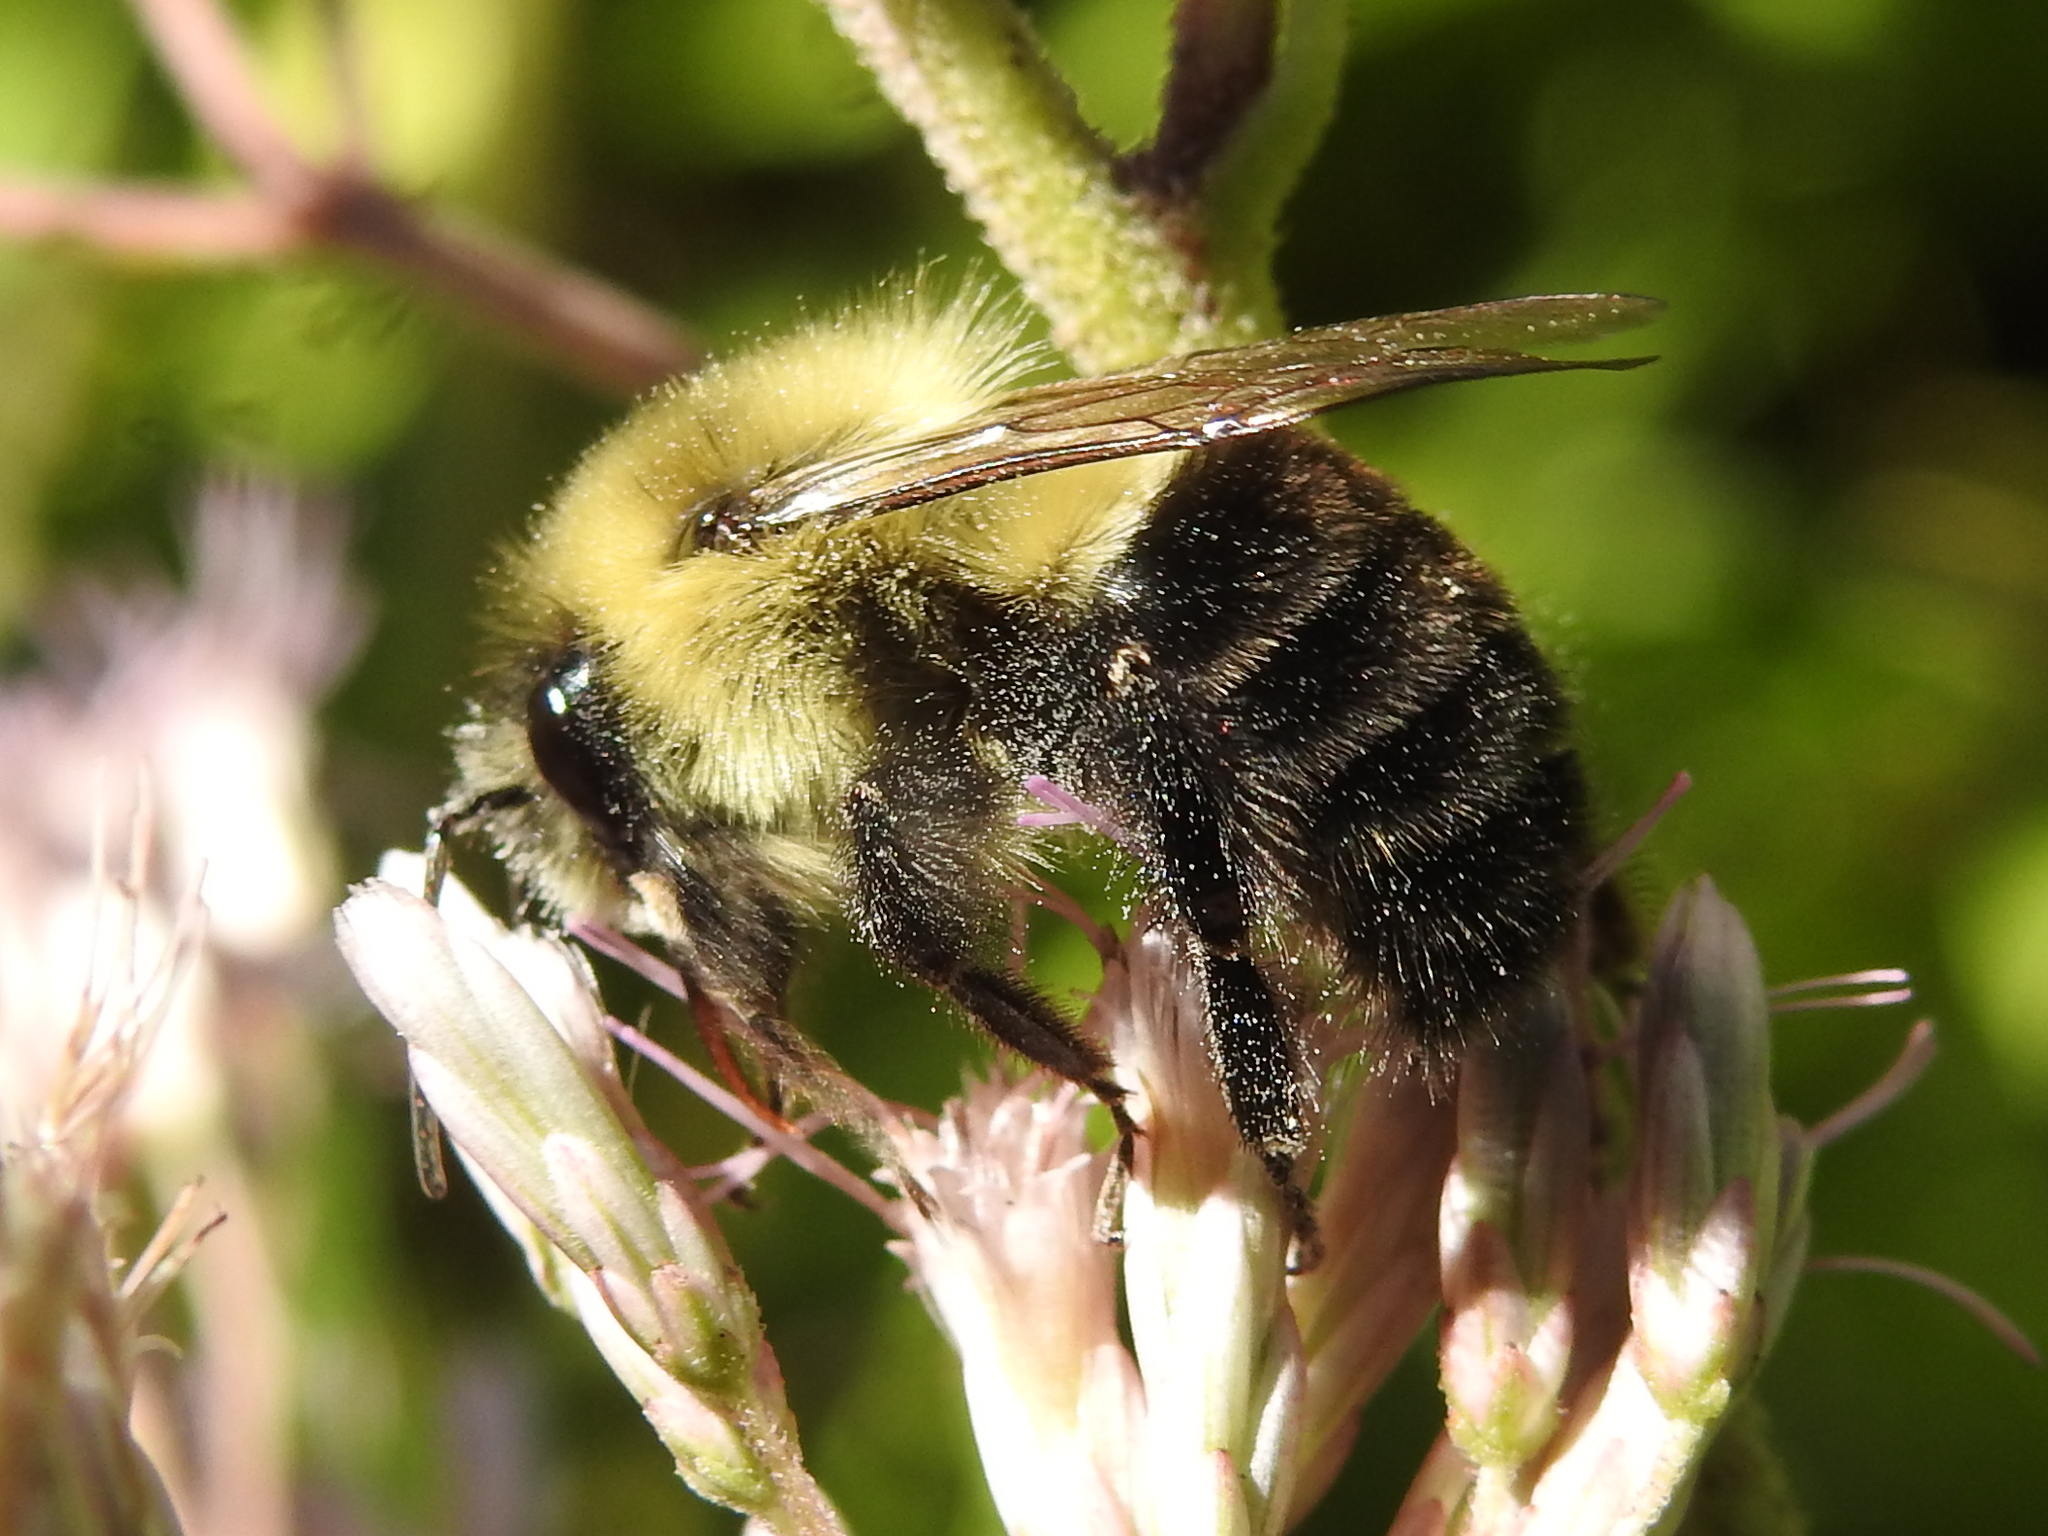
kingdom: Animalia
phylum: Arthropoda
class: Insecta
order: Hymenoptera
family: Apidae
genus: Bombus
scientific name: Bombus impatiens
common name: Common eastern bumble bee
